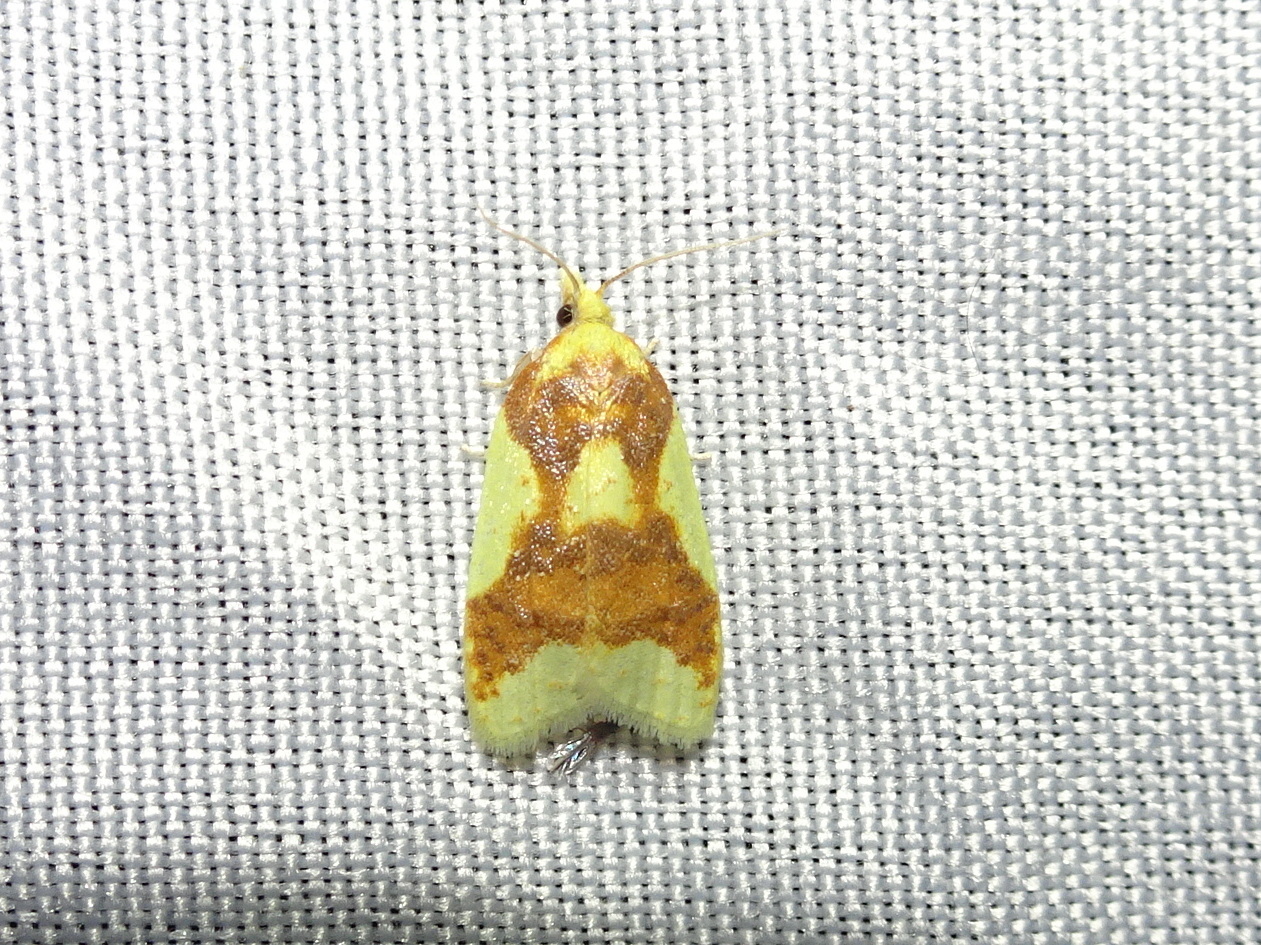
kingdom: Animalia
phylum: Arthropoda
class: Insecta
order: Lepidoptera
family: Tortricidae
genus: Sparganothis
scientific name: Sparganothis pulcherrimana
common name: Beautiful sparganothis
